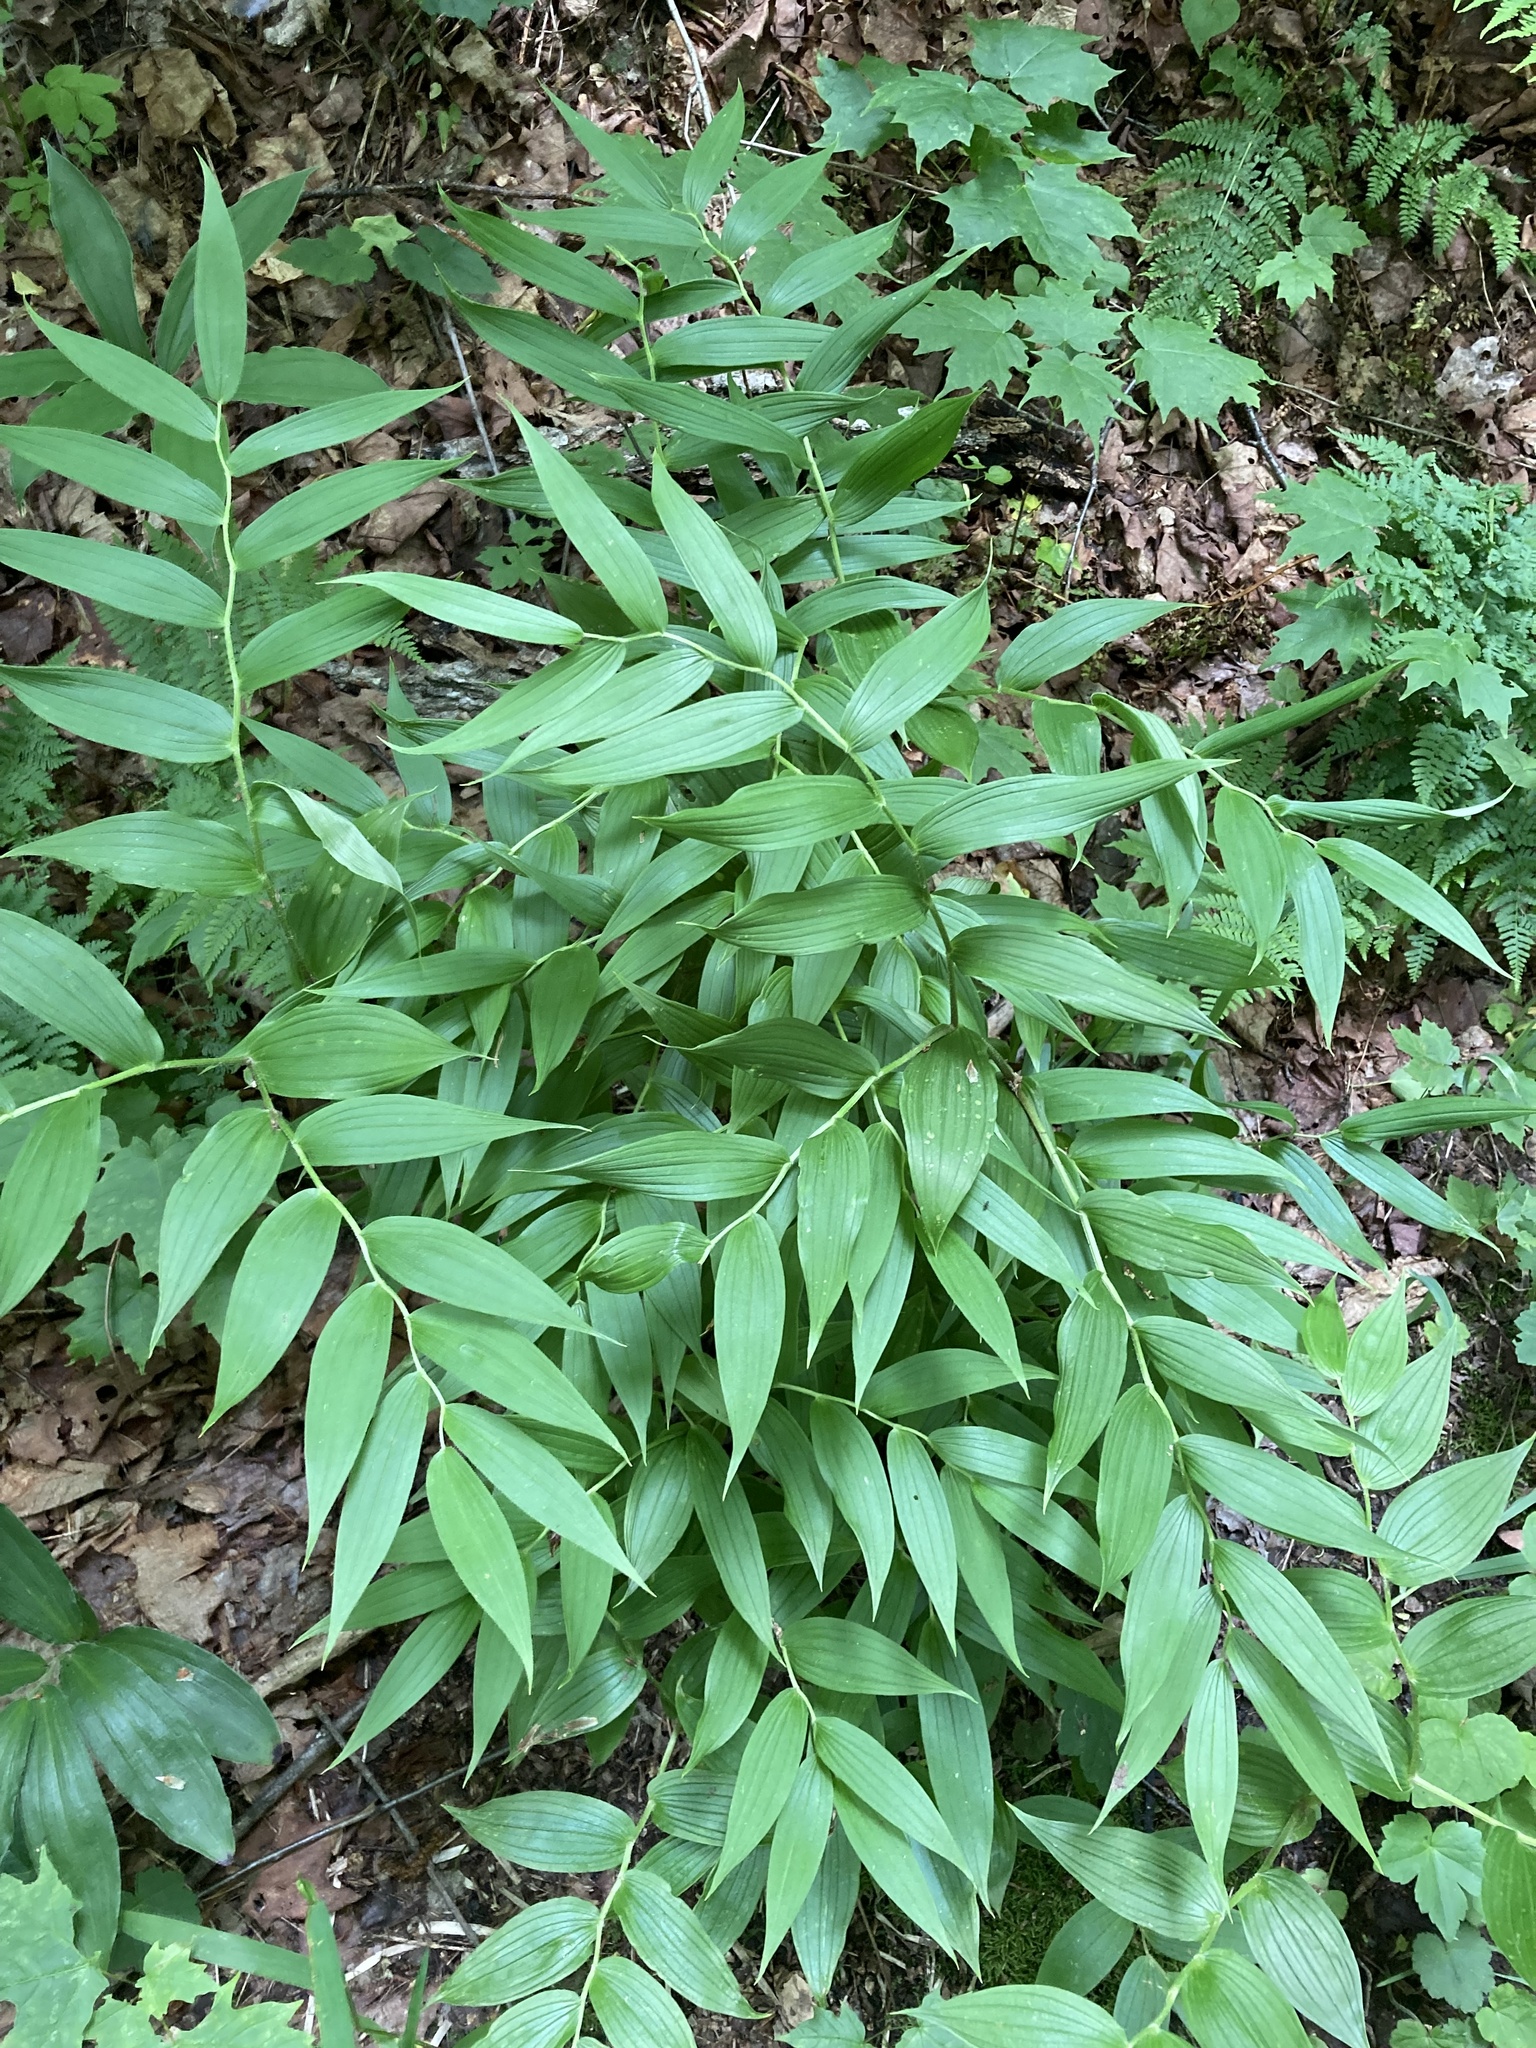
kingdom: Plantae
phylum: Tracheophyta
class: Liliopsida
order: Liliales
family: Liliaceae
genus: Streptopus
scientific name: Streptopus lanceolatus
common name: Rose mandarin
